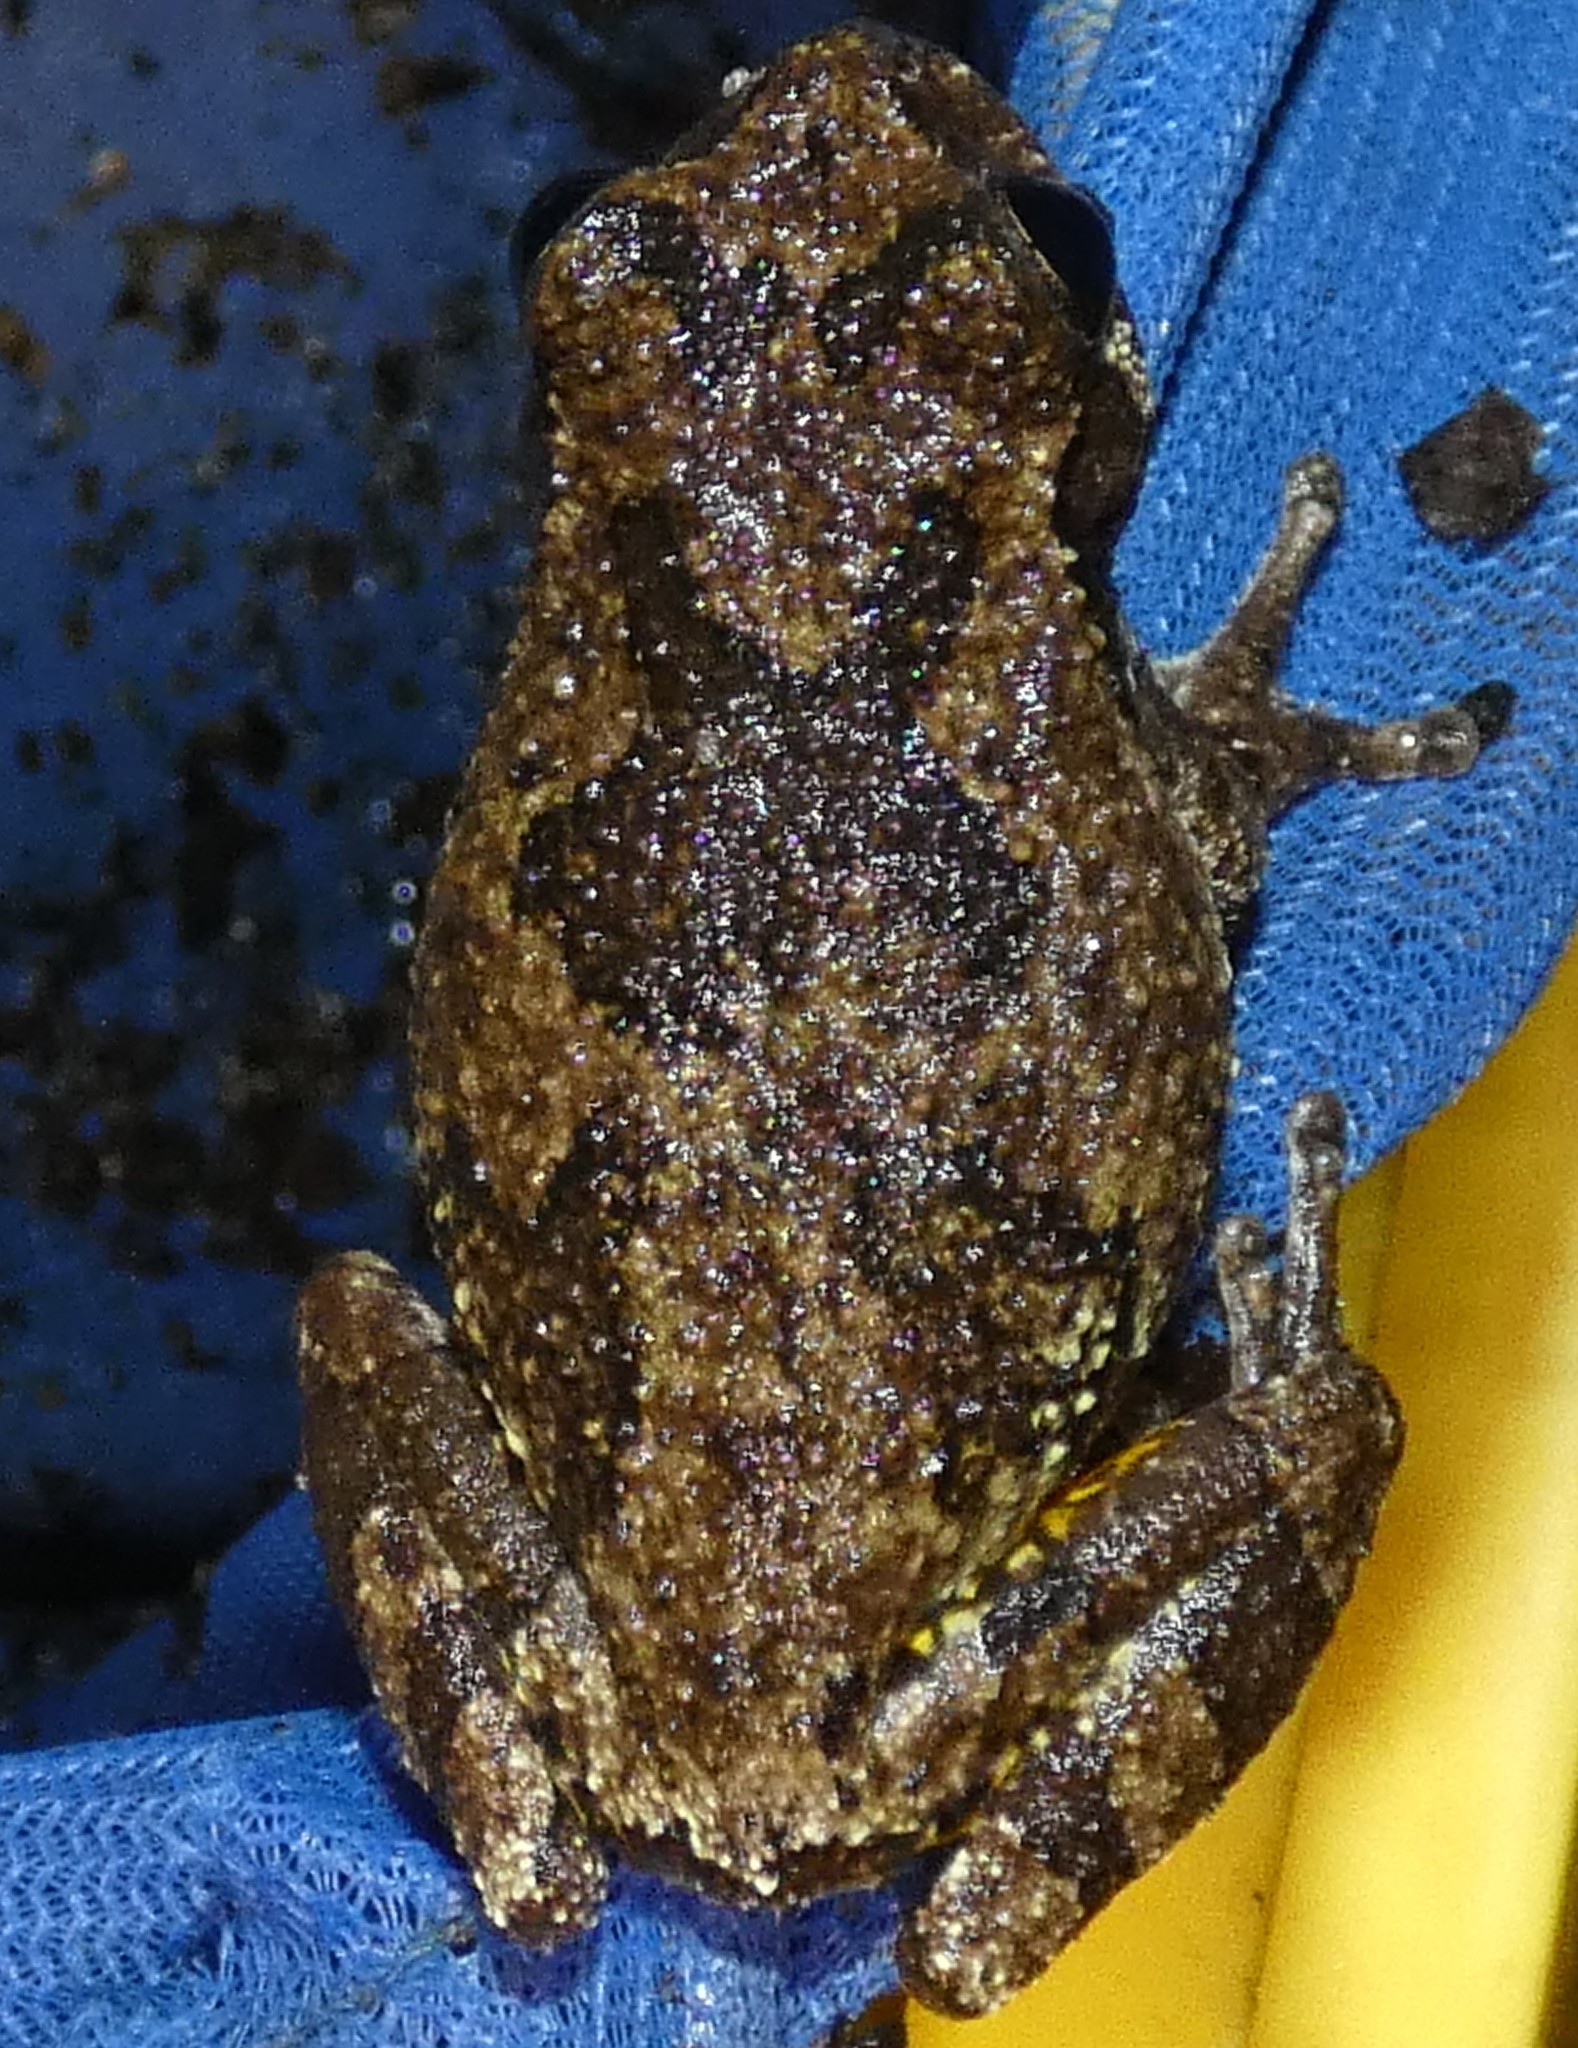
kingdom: Animalia
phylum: Chordata
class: Amphibia
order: Anura
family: Hylidae
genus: Dryophytes
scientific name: Dryophytes chrysoscelis
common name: Cope's gray treefrog
